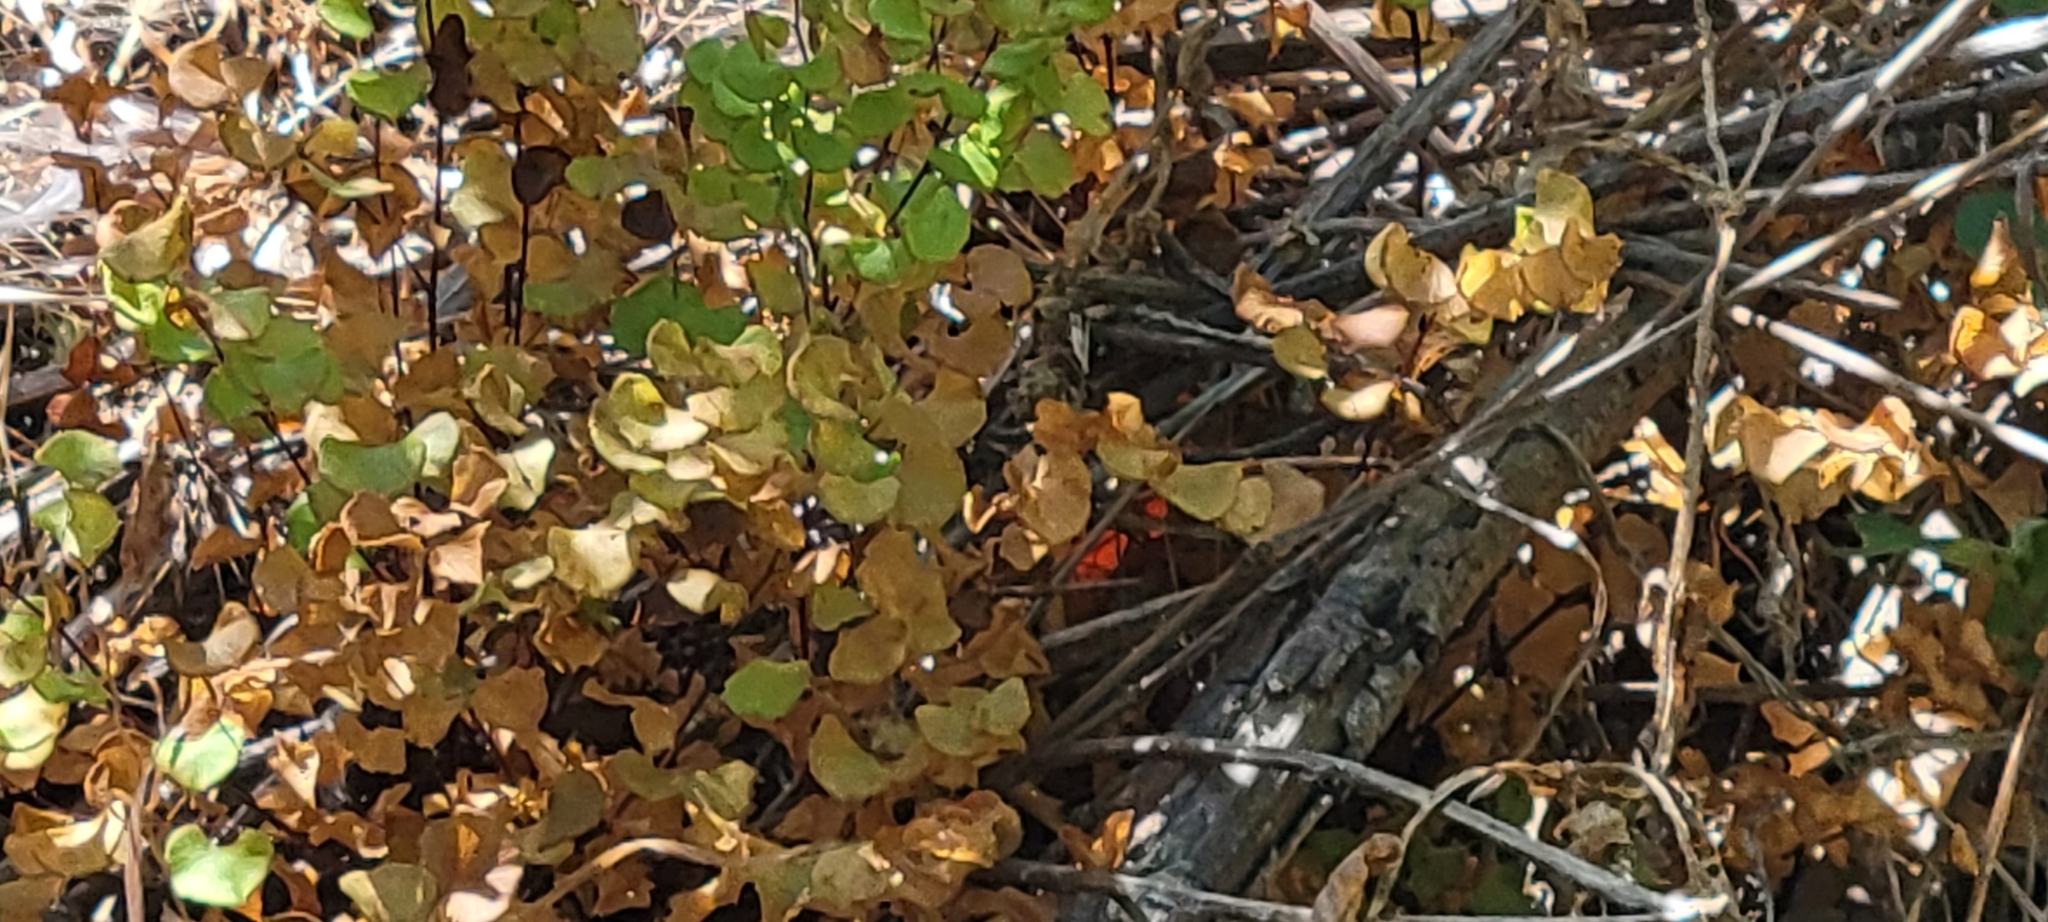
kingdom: Plantae
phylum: Tracheophyta
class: Polypodiopsida
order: Polypodiales
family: Pteridaceae
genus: Adiantum
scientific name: Adiantum jordanii
